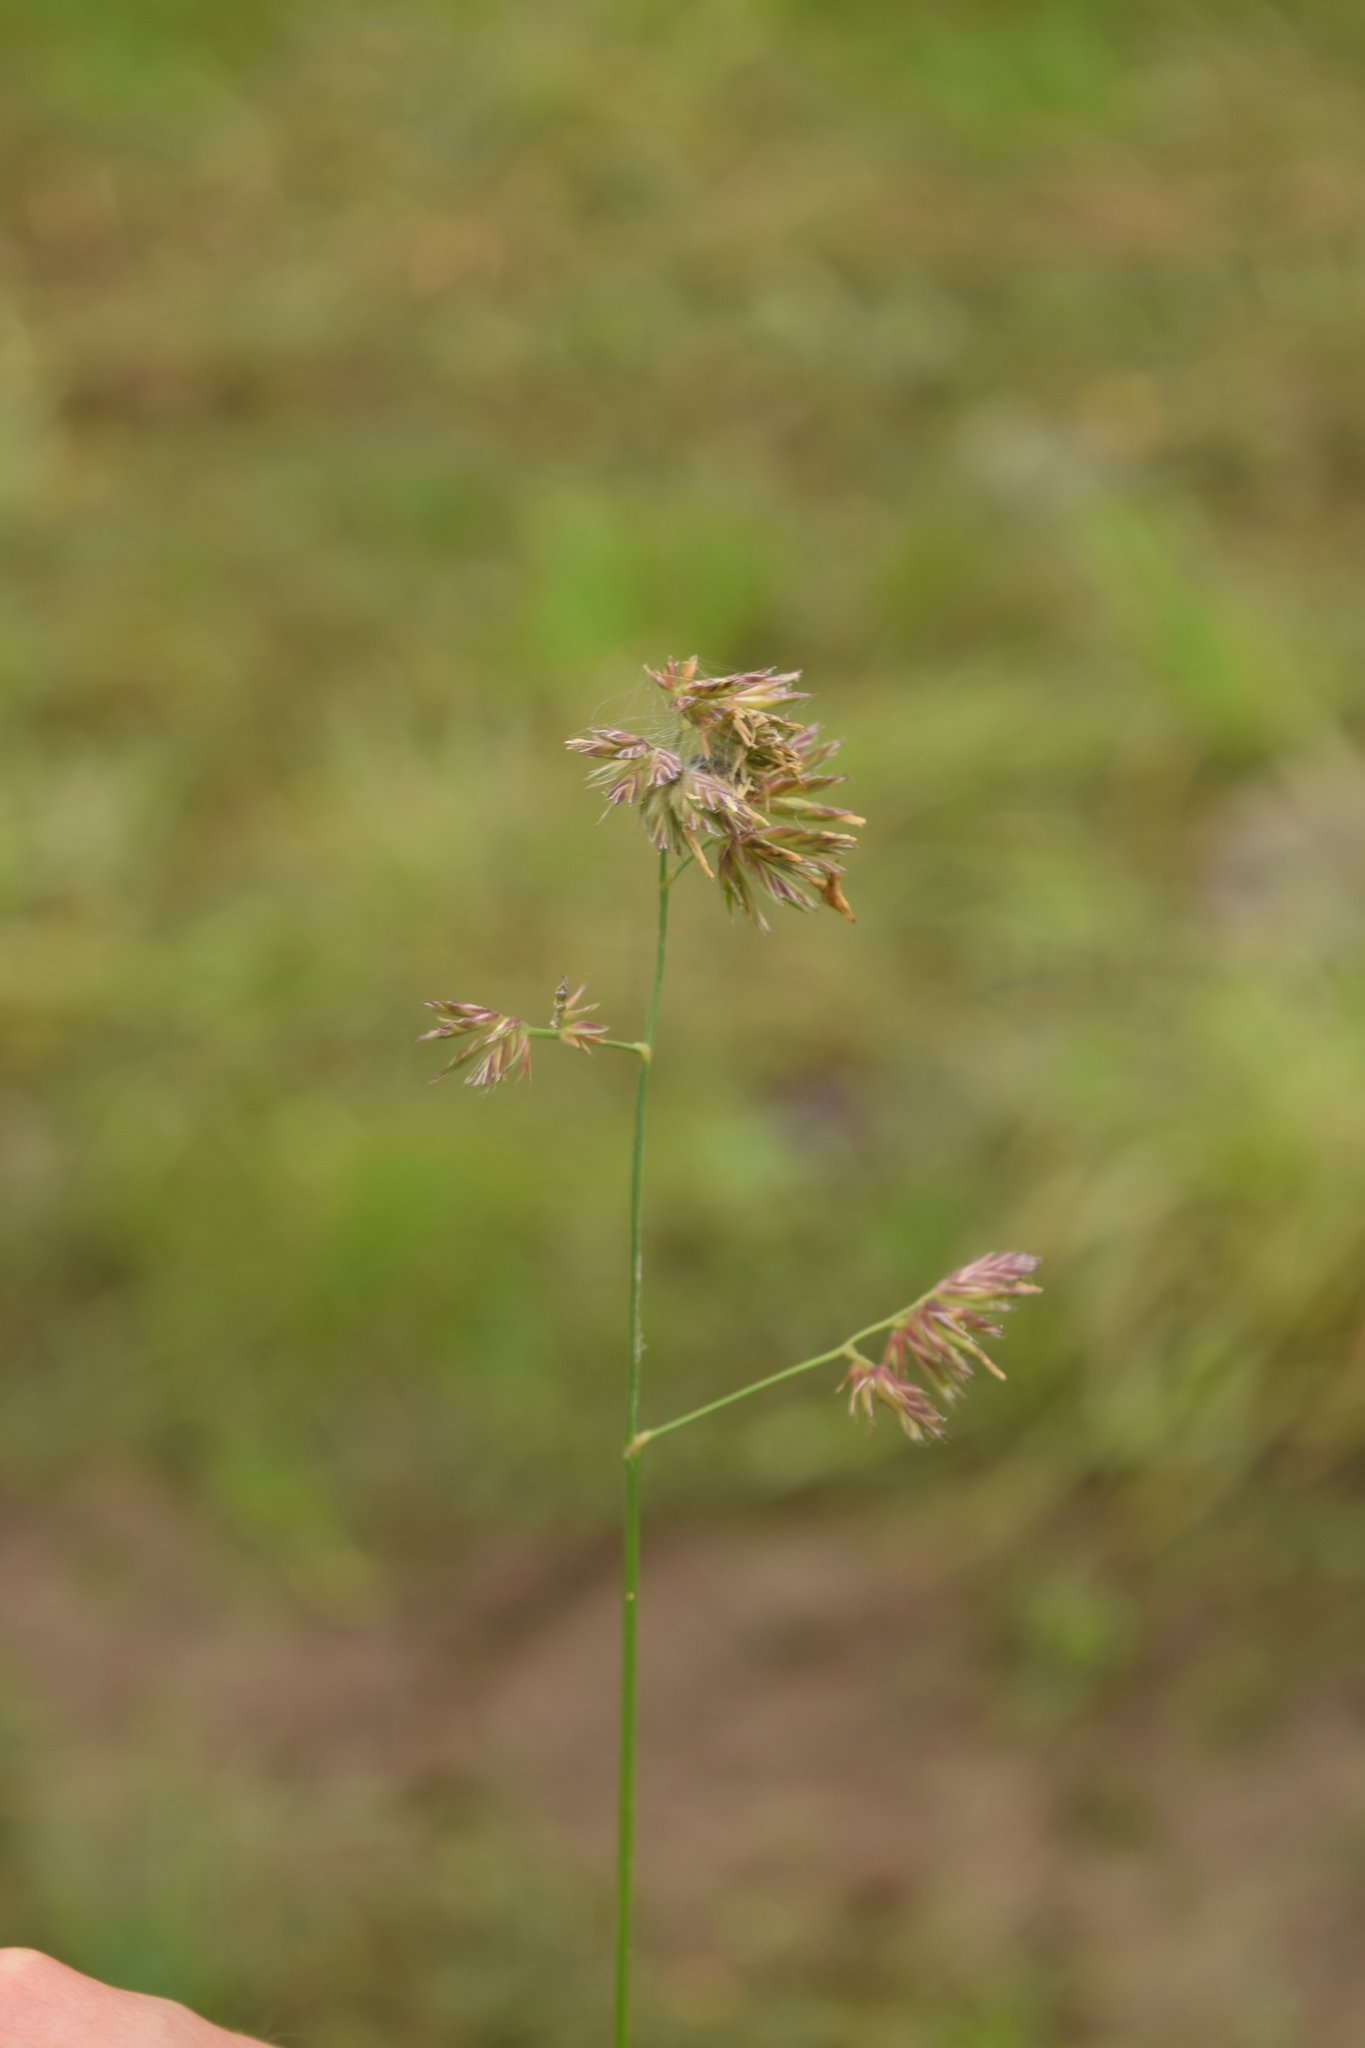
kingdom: Plantae
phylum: Tracheophyta
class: Liliopsida
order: Poales
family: Poaceae
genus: Dactylis
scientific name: Dactylis glomerata
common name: Orchardgrass
